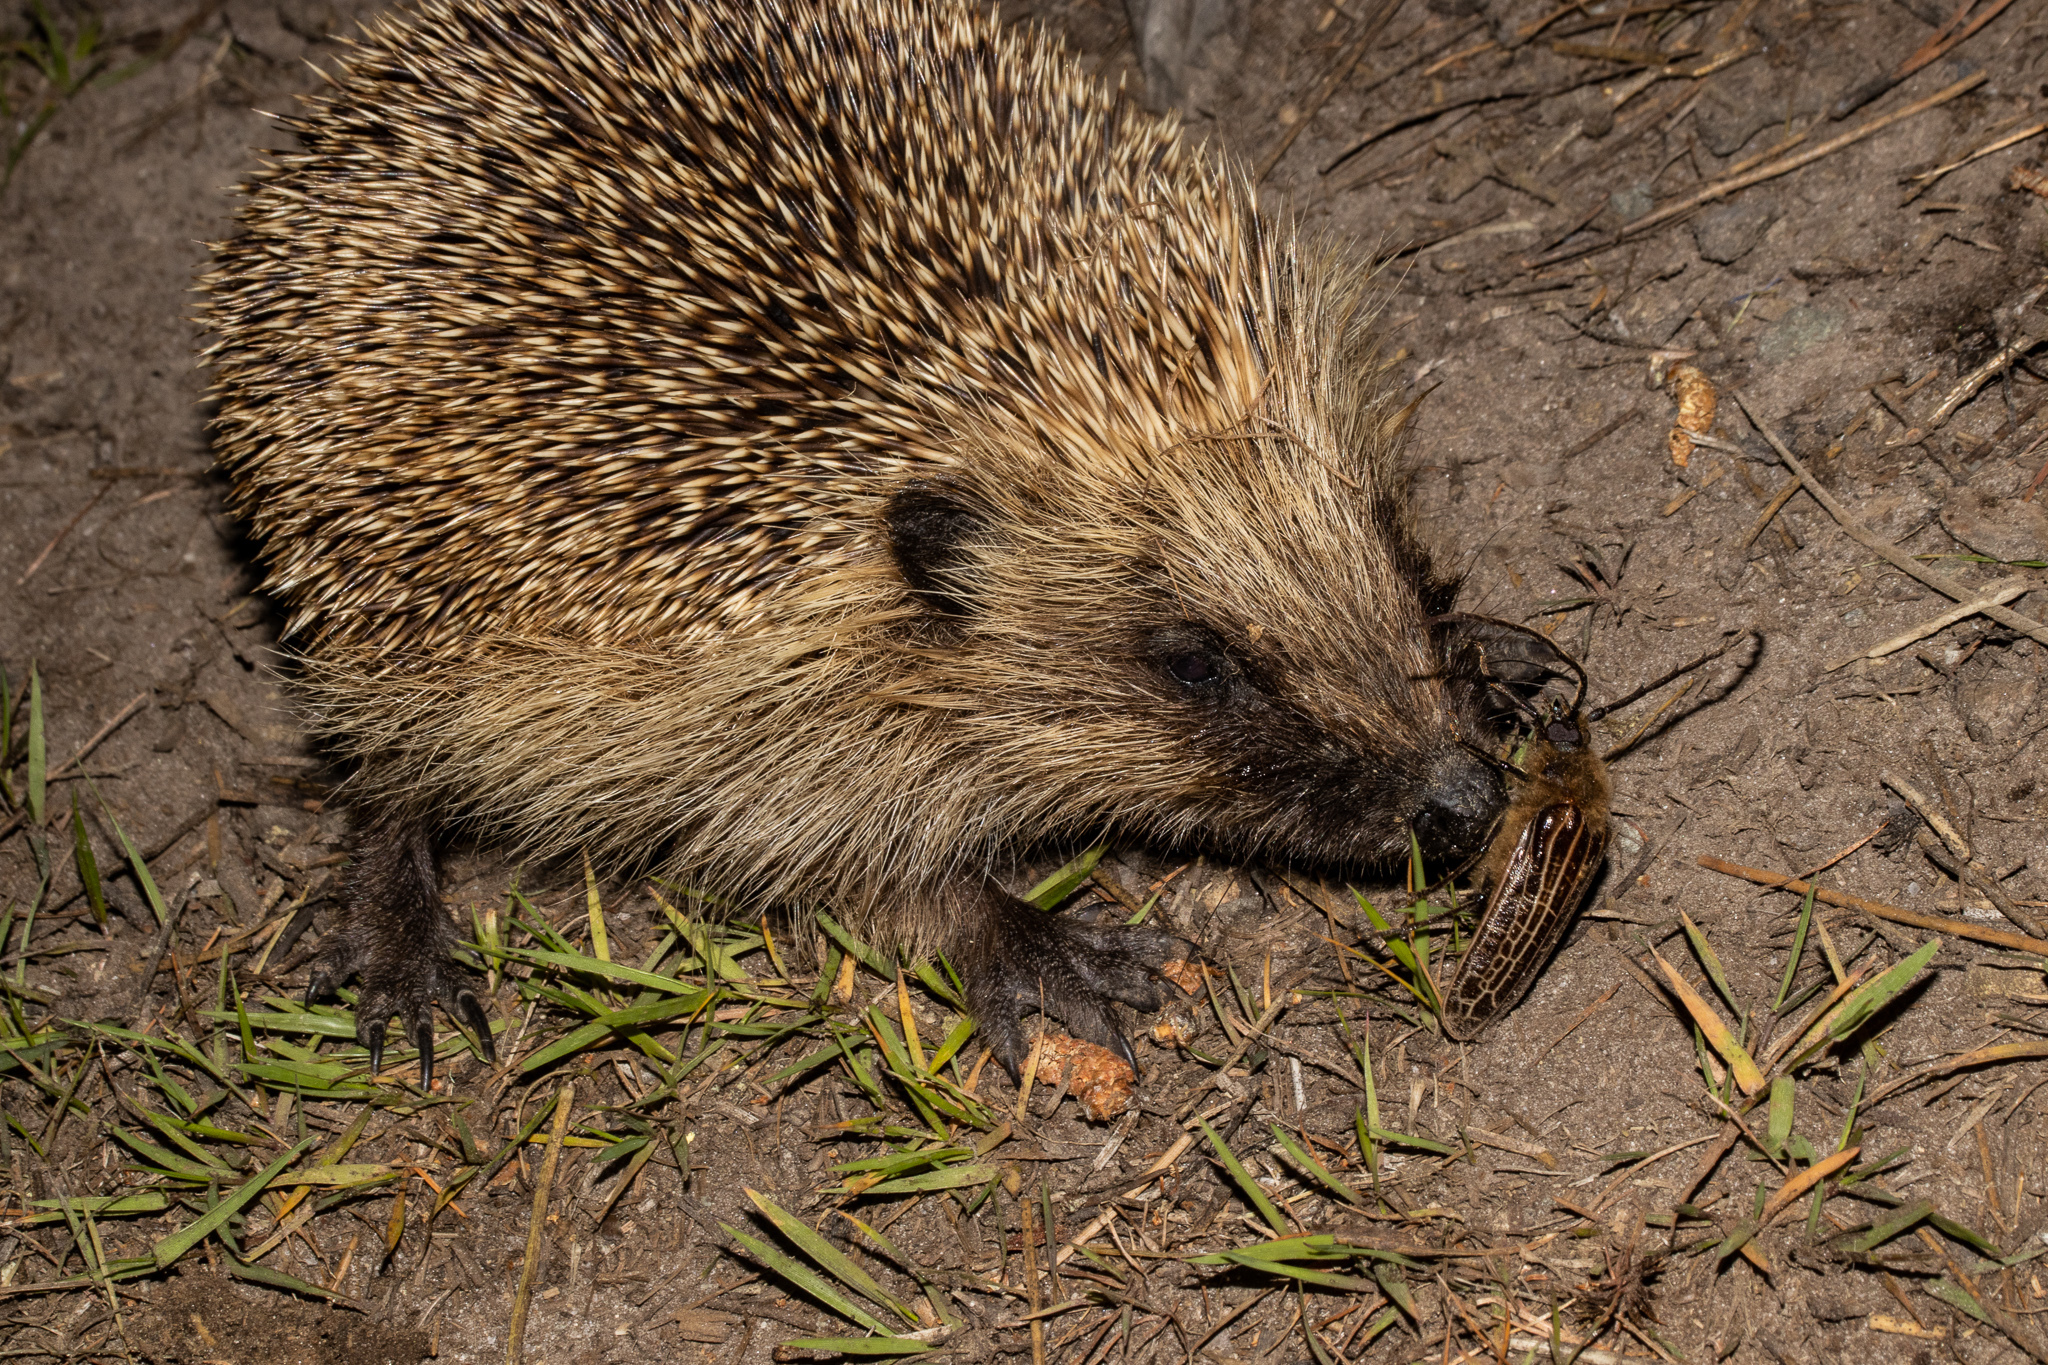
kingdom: Animalia
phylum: Chordata
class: Mammalia
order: Erinaceomorpha
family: Erinaceidae
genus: Erinaceus
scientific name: Erinaceus europaeus
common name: West european hedgehog
